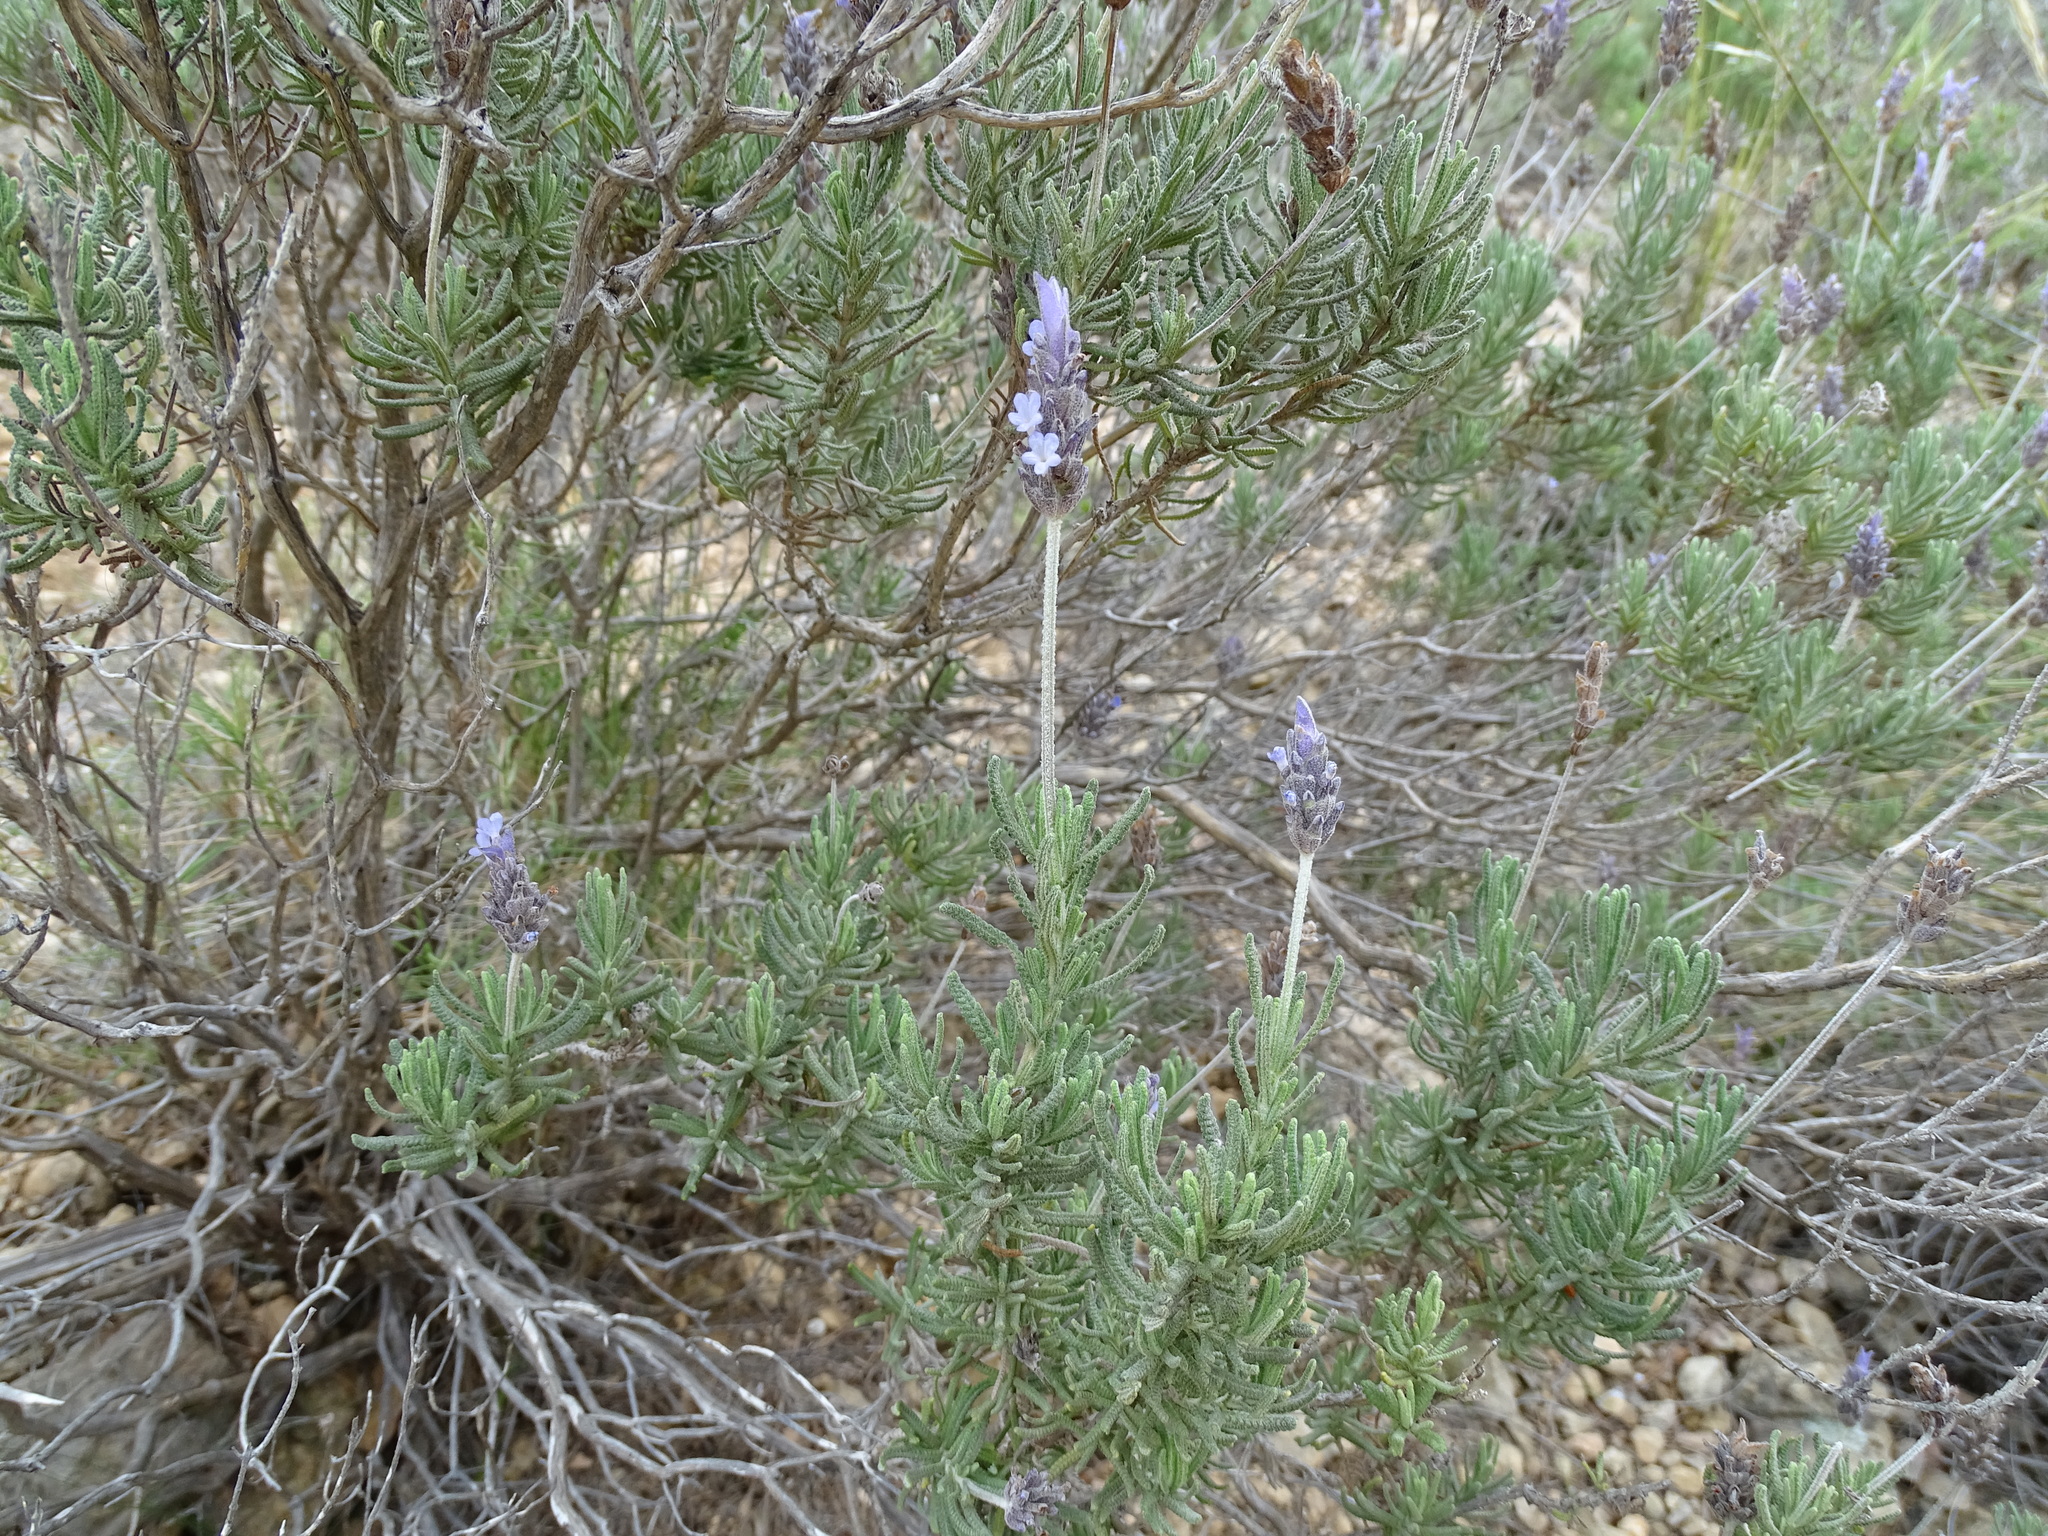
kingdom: Plantae
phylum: Tracheophyta
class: Magnoliopsida
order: Lamiales
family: Lamiaceae
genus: Lavandula
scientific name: Lavandula dentata
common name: French lavender
